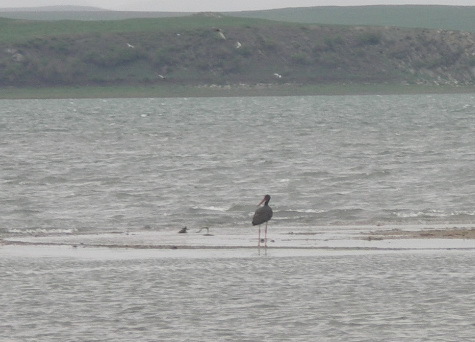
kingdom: Animalia
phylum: Chordata
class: Aves
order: Ciconiiformes
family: Ciconiidae
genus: Ciconia
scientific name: Ciconia nigra
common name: Black stork
